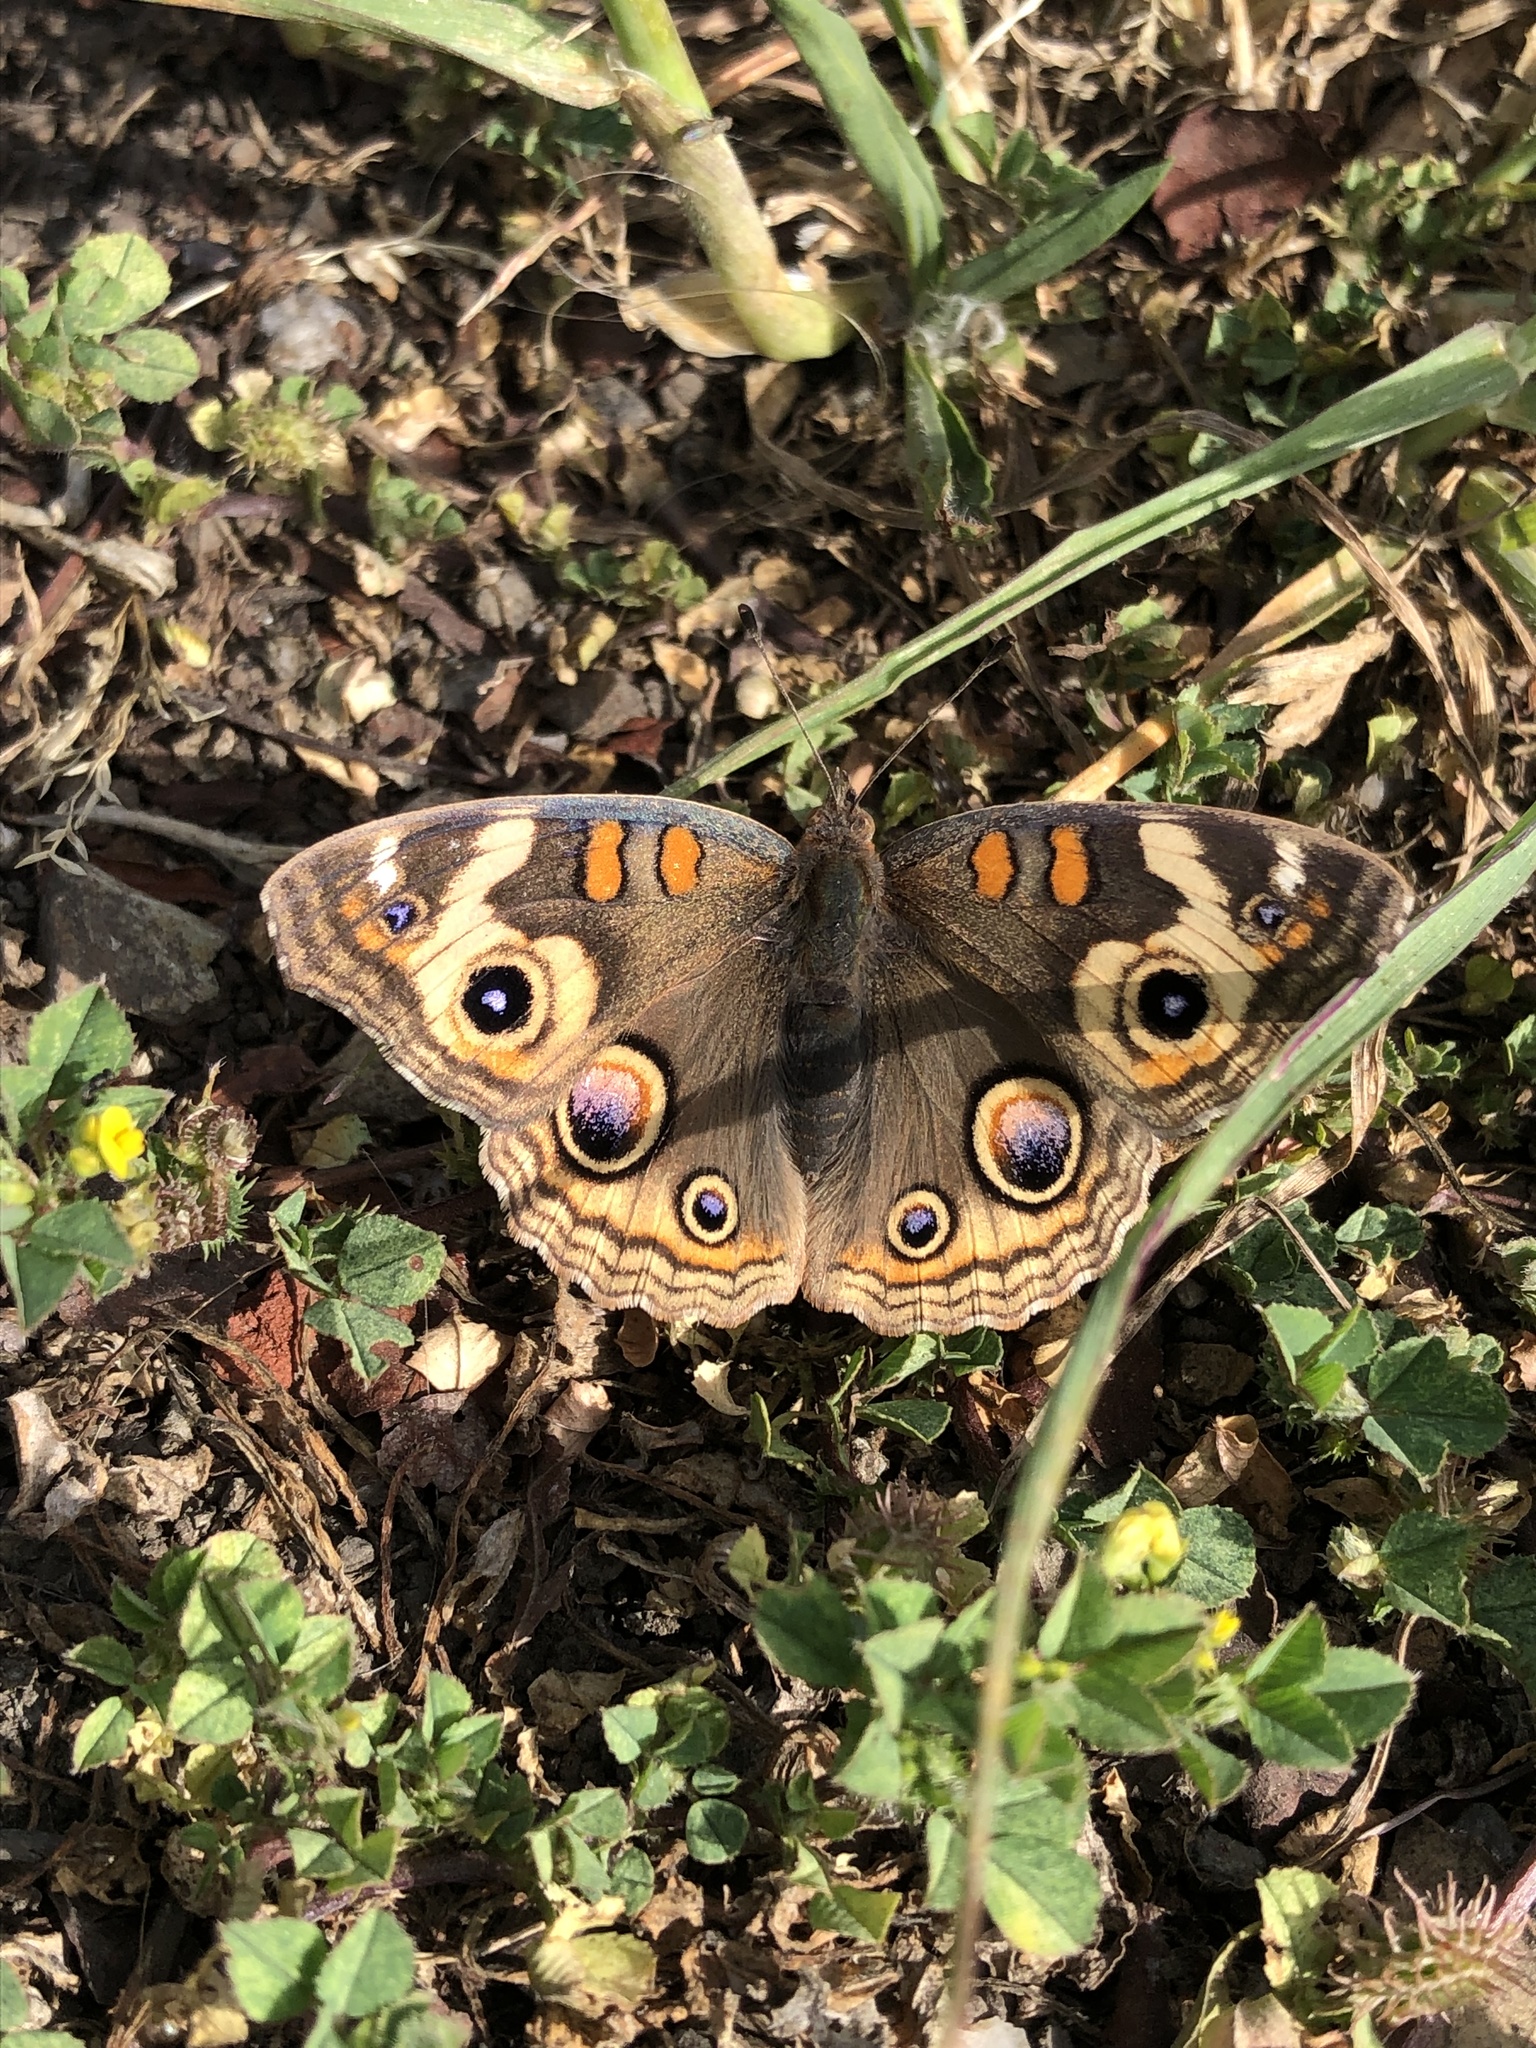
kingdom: Animalia
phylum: Arthropoda
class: Insecta
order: Lepidoptera
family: Nymphalidae
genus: Junonia
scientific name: Junonia grisea
